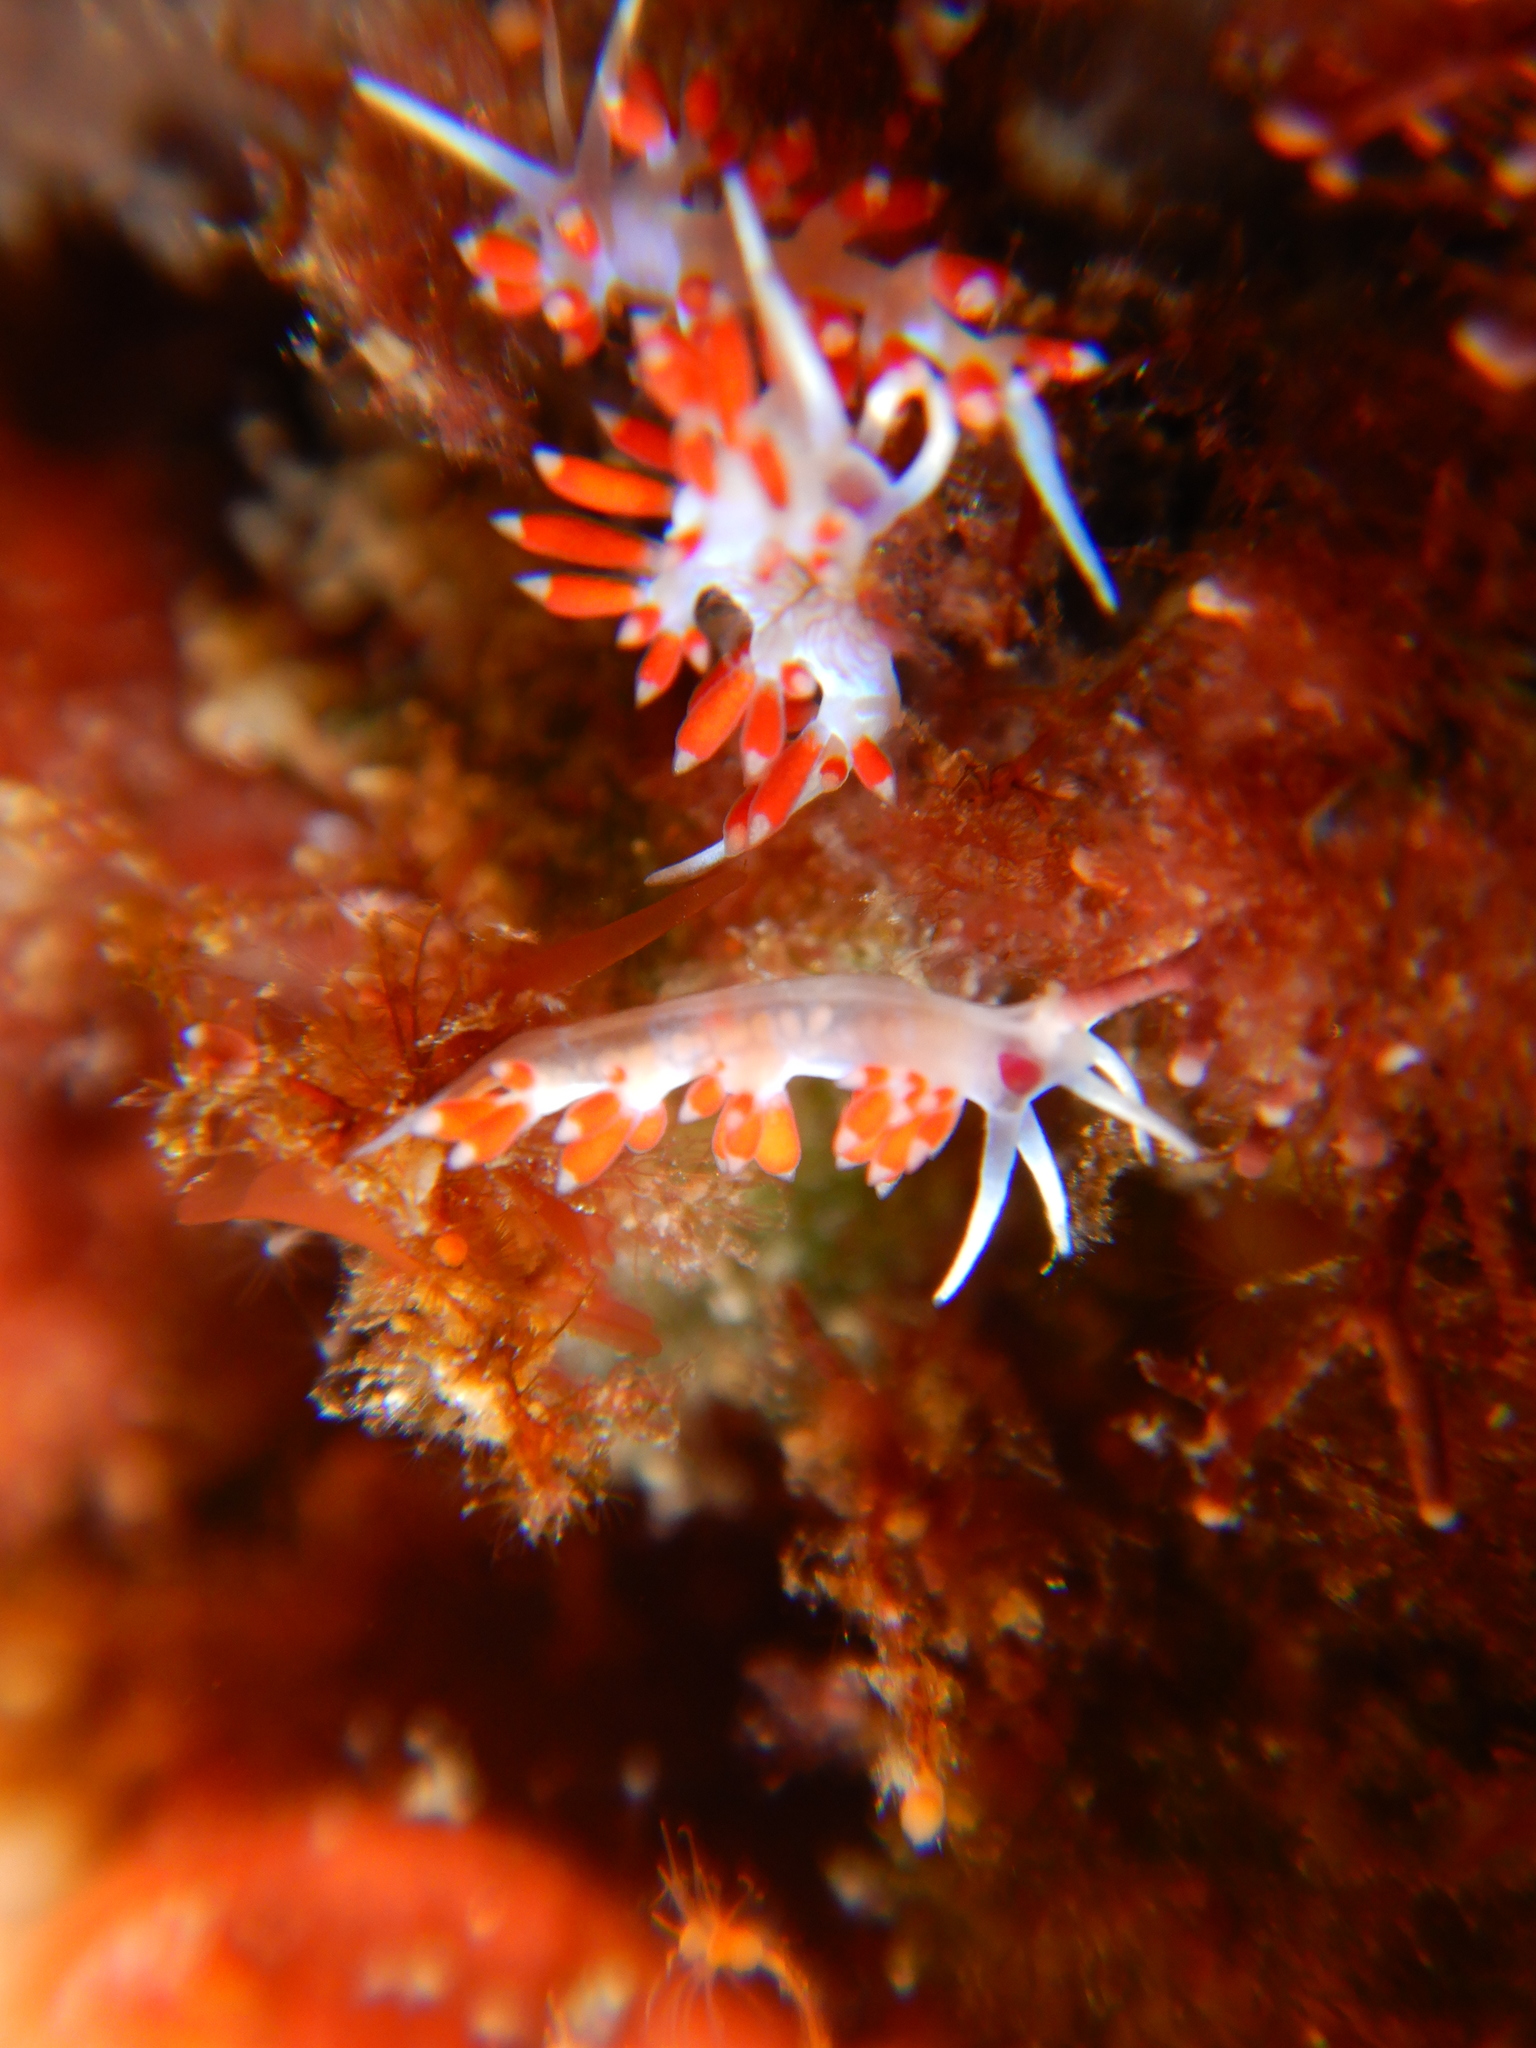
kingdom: Animalia
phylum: Mollusca
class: Gastropoda
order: Nudibranchia
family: Flabellinidae
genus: Calmella
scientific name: Calmella cavolini
